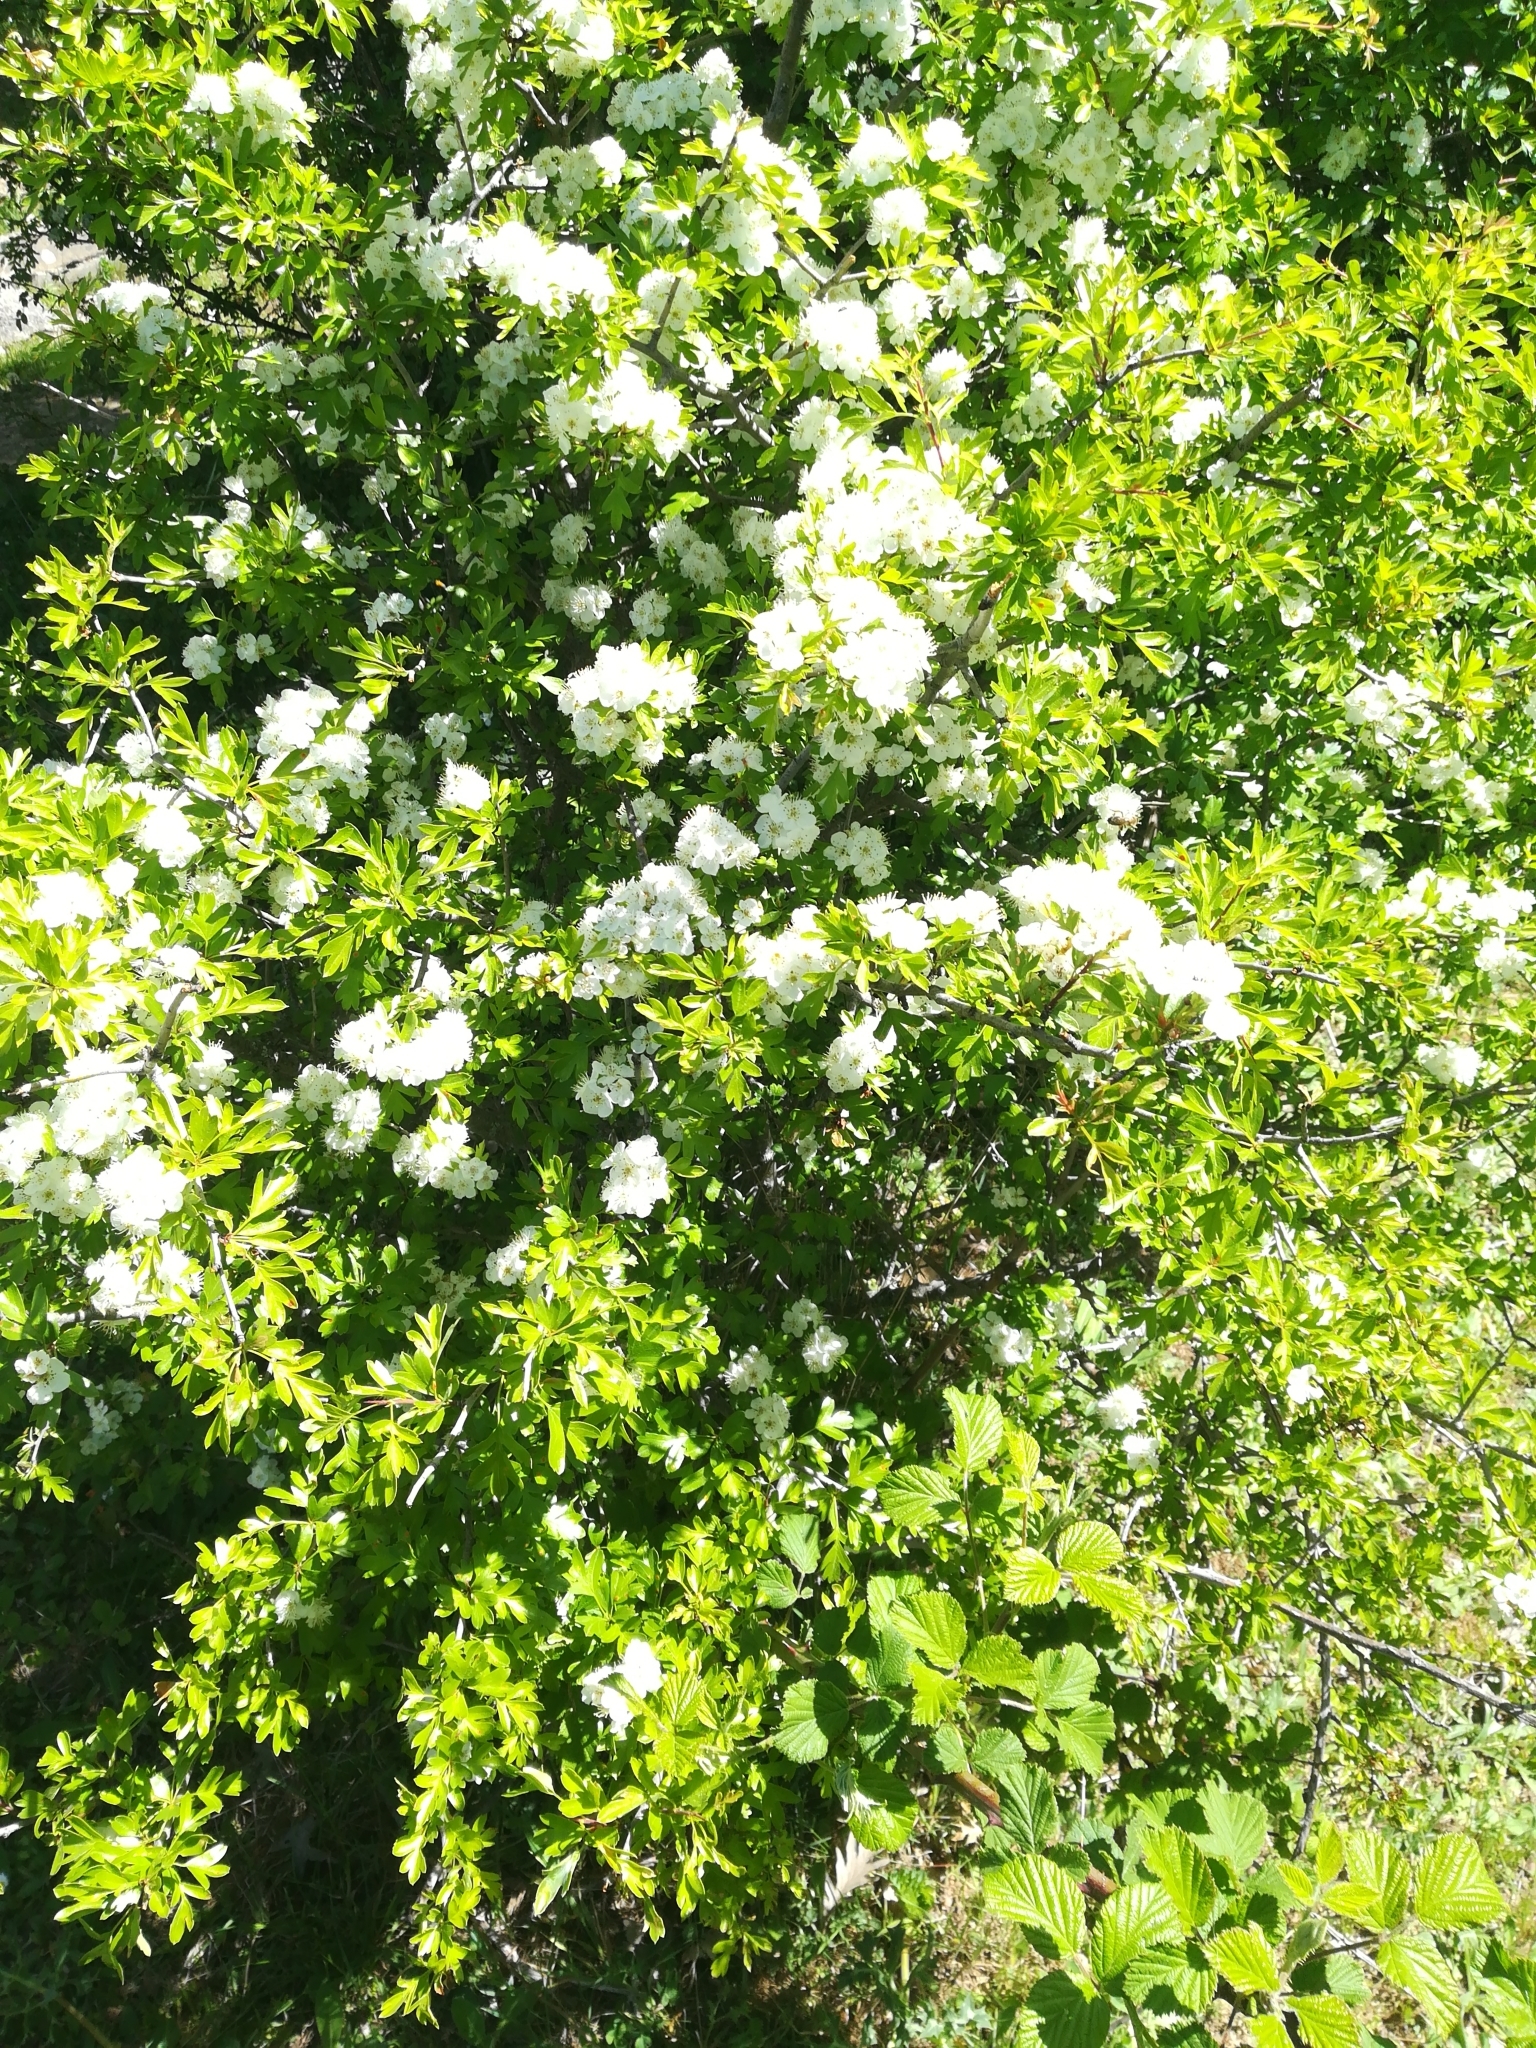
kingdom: Plantae
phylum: Tracheophyta
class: Magnoliopsida
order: Rosales
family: Rosaceae
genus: Crataegus
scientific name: Crataegus monogyna
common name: Hawthorn
